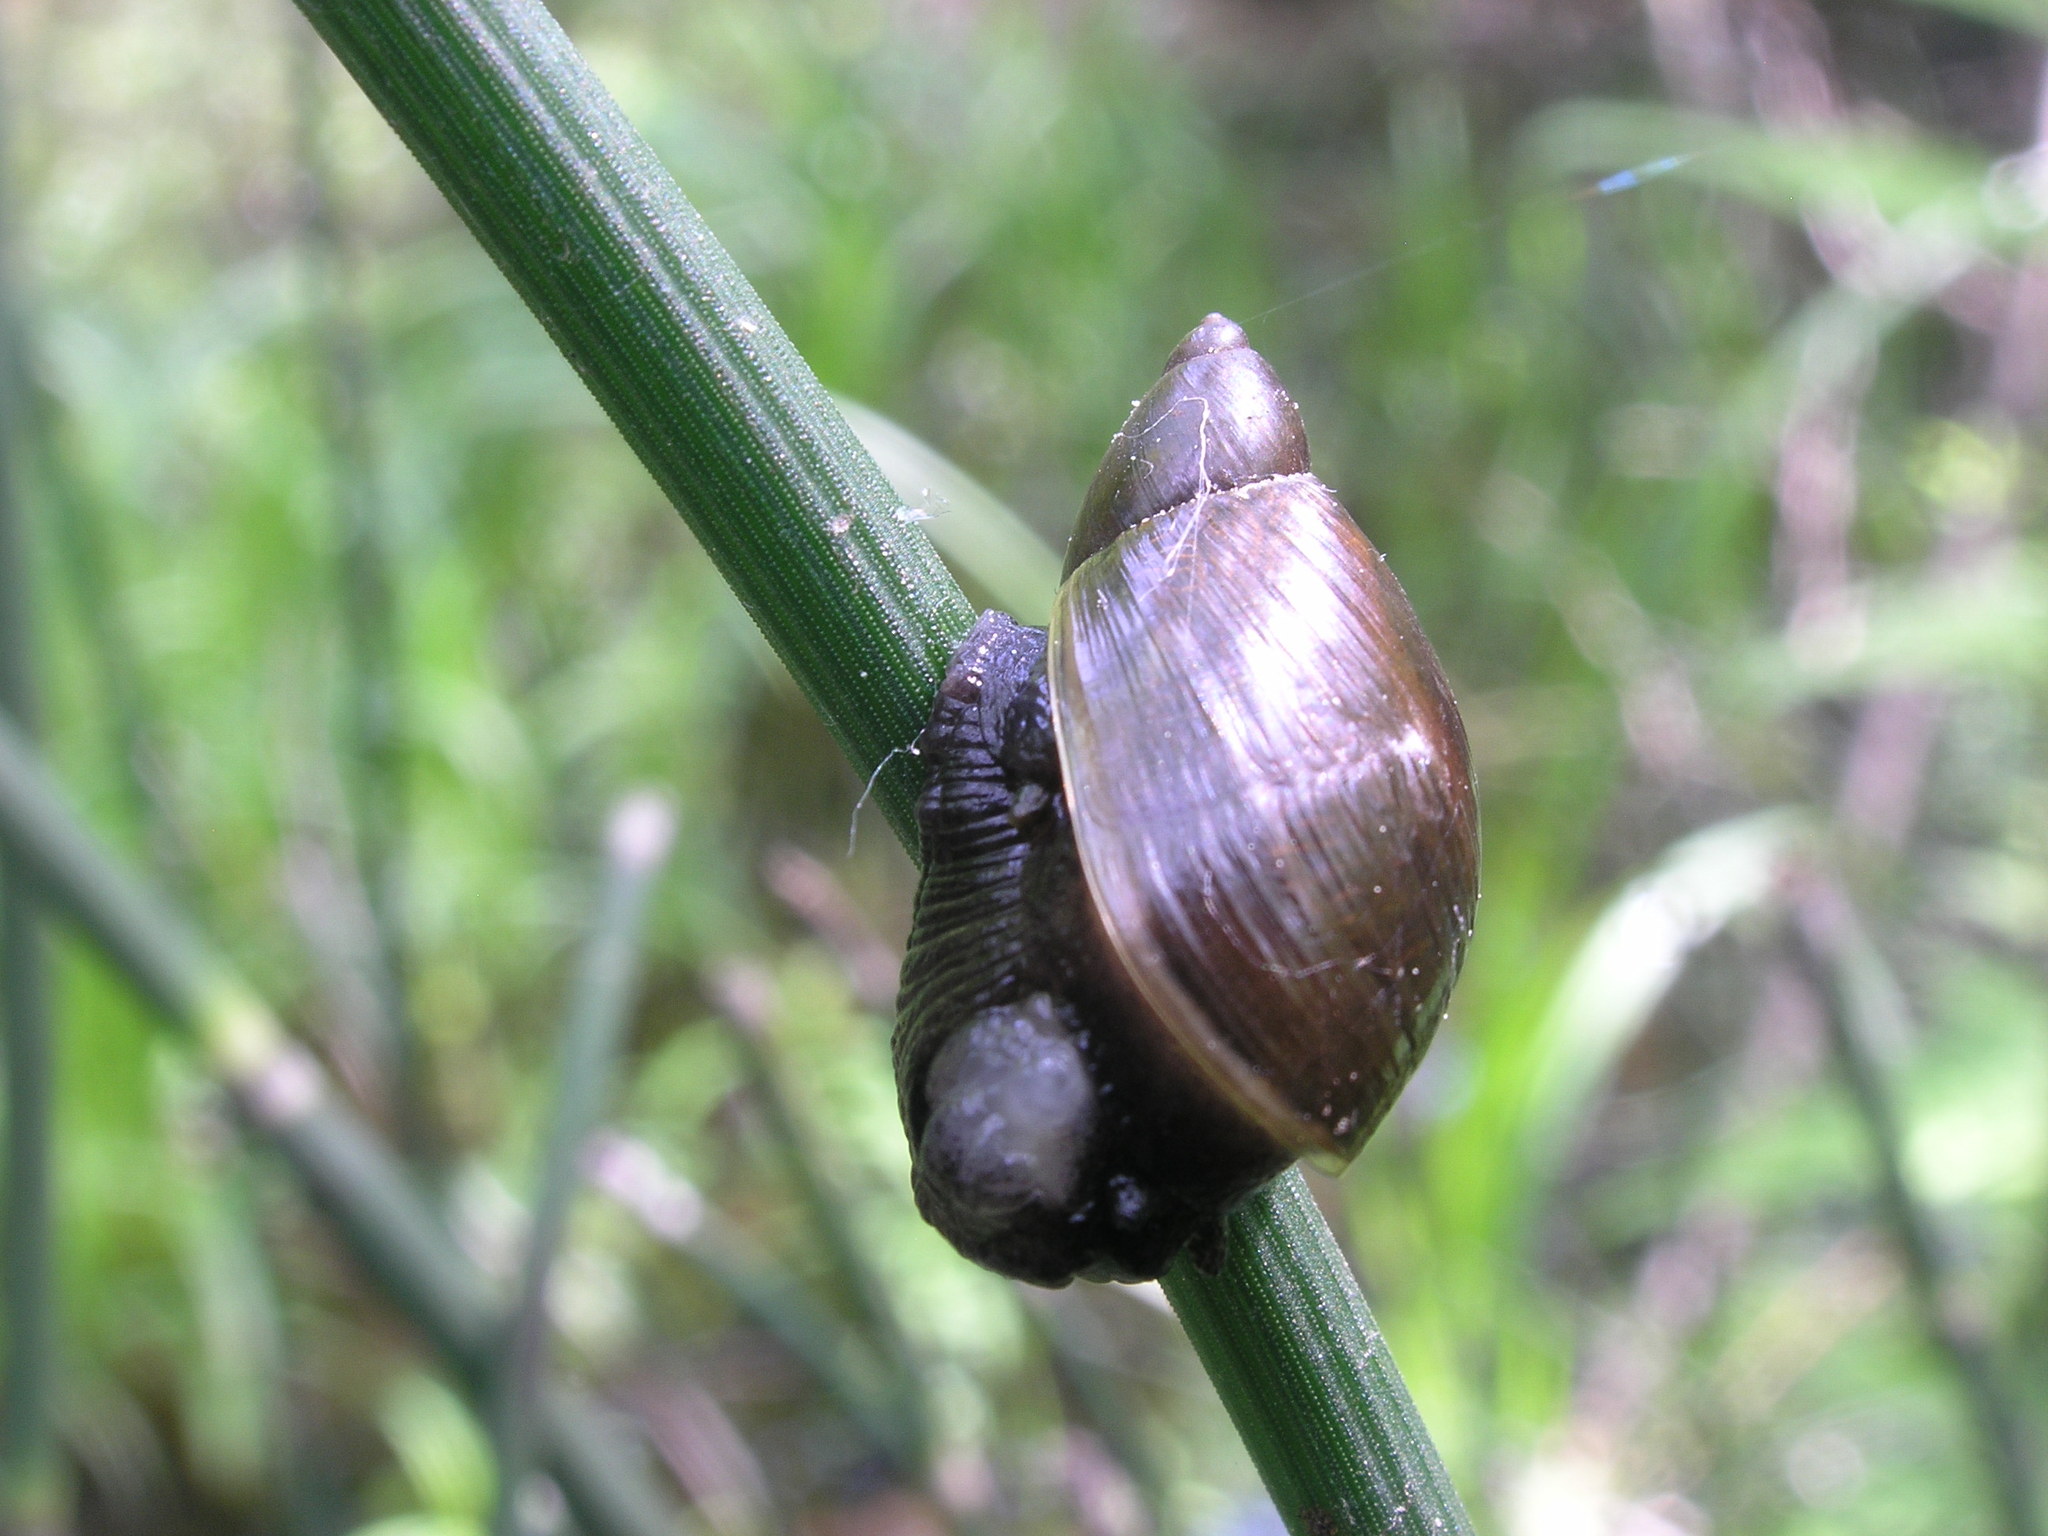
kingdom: Animalia
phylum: Mollusca
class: Gastropoda
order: Stylommatophora
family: Succineidae
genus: Succinea
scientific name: Succinea putris
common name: European ambersnail
